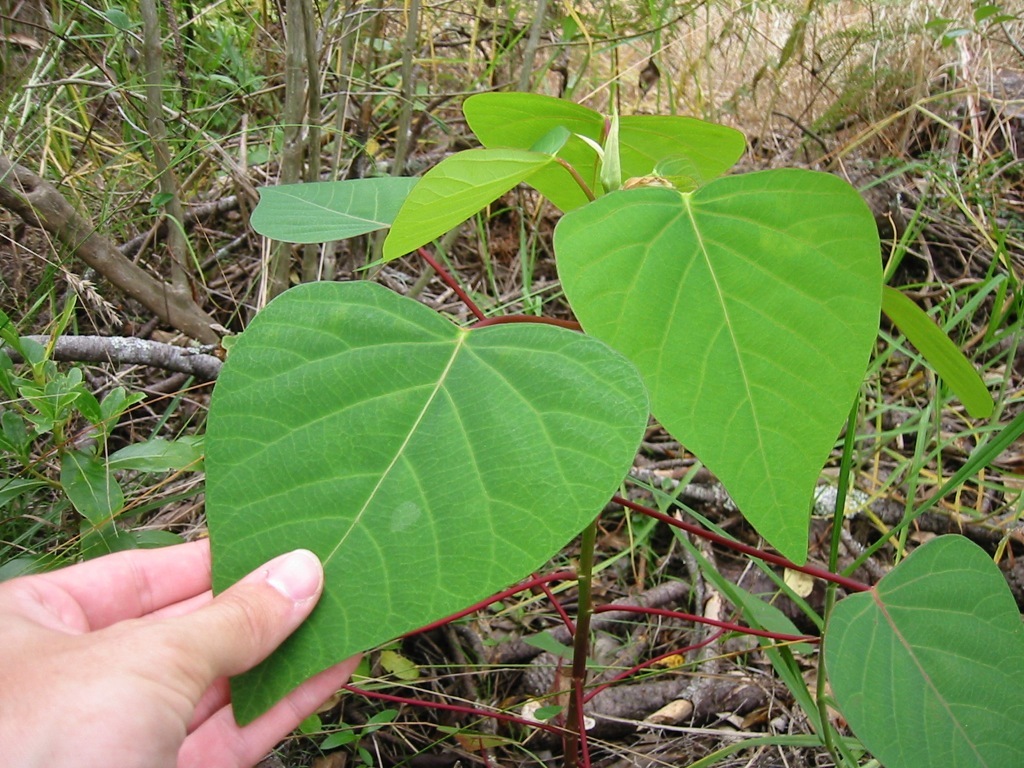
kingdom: Plantae
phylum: Tracheophyta
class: Magnoliopsida
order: Malpighiales
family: Euphorbiaceae
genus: Homalanthus
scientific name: Homalanthus populifolius
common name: Queensland poplar
